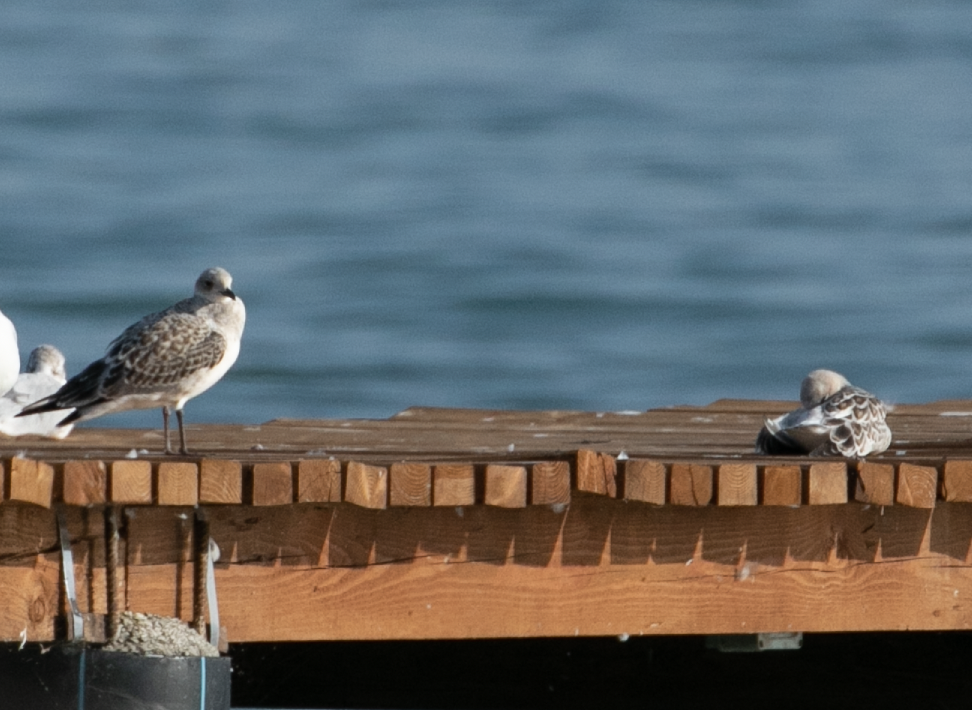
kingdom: Animalia
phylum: Chordata
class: Aves
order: Charadriiformes
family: Laridae
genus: Ichthyaetus
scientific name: Ichthyaetus melanocephalus
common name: Mediterranean gull
